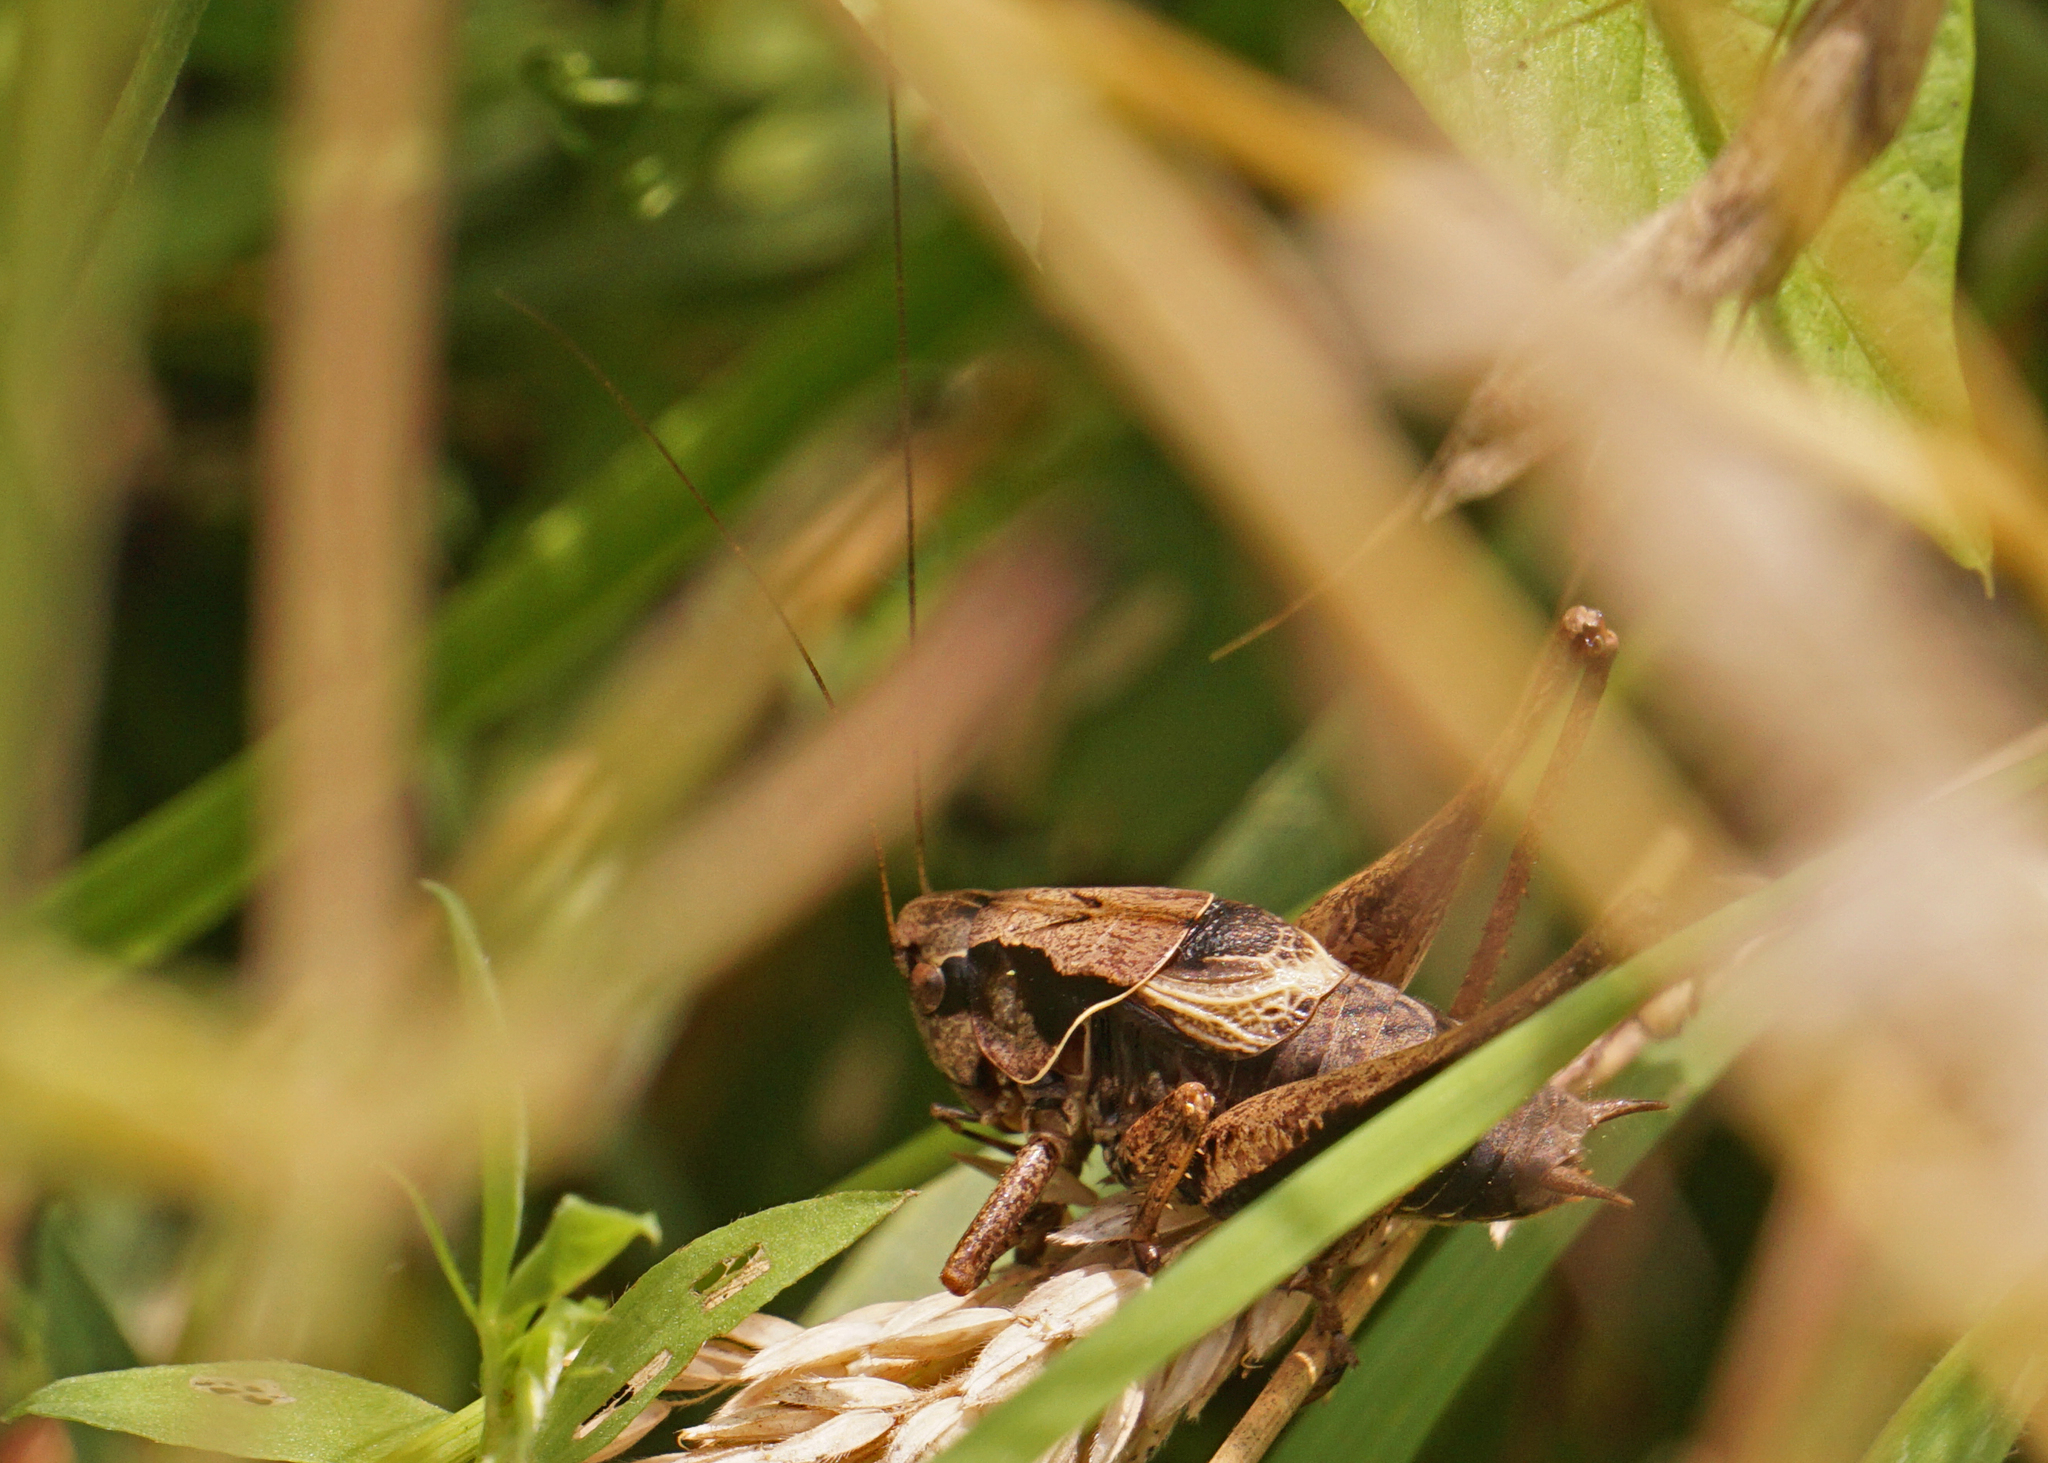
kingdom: Animalia
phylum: Arthropoda
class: Insecta
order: Orthoptera
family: Tettigoniidae
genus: Pholidoptera
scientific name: Pholidoptera griseoaptera
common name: Dark bush-cricket
